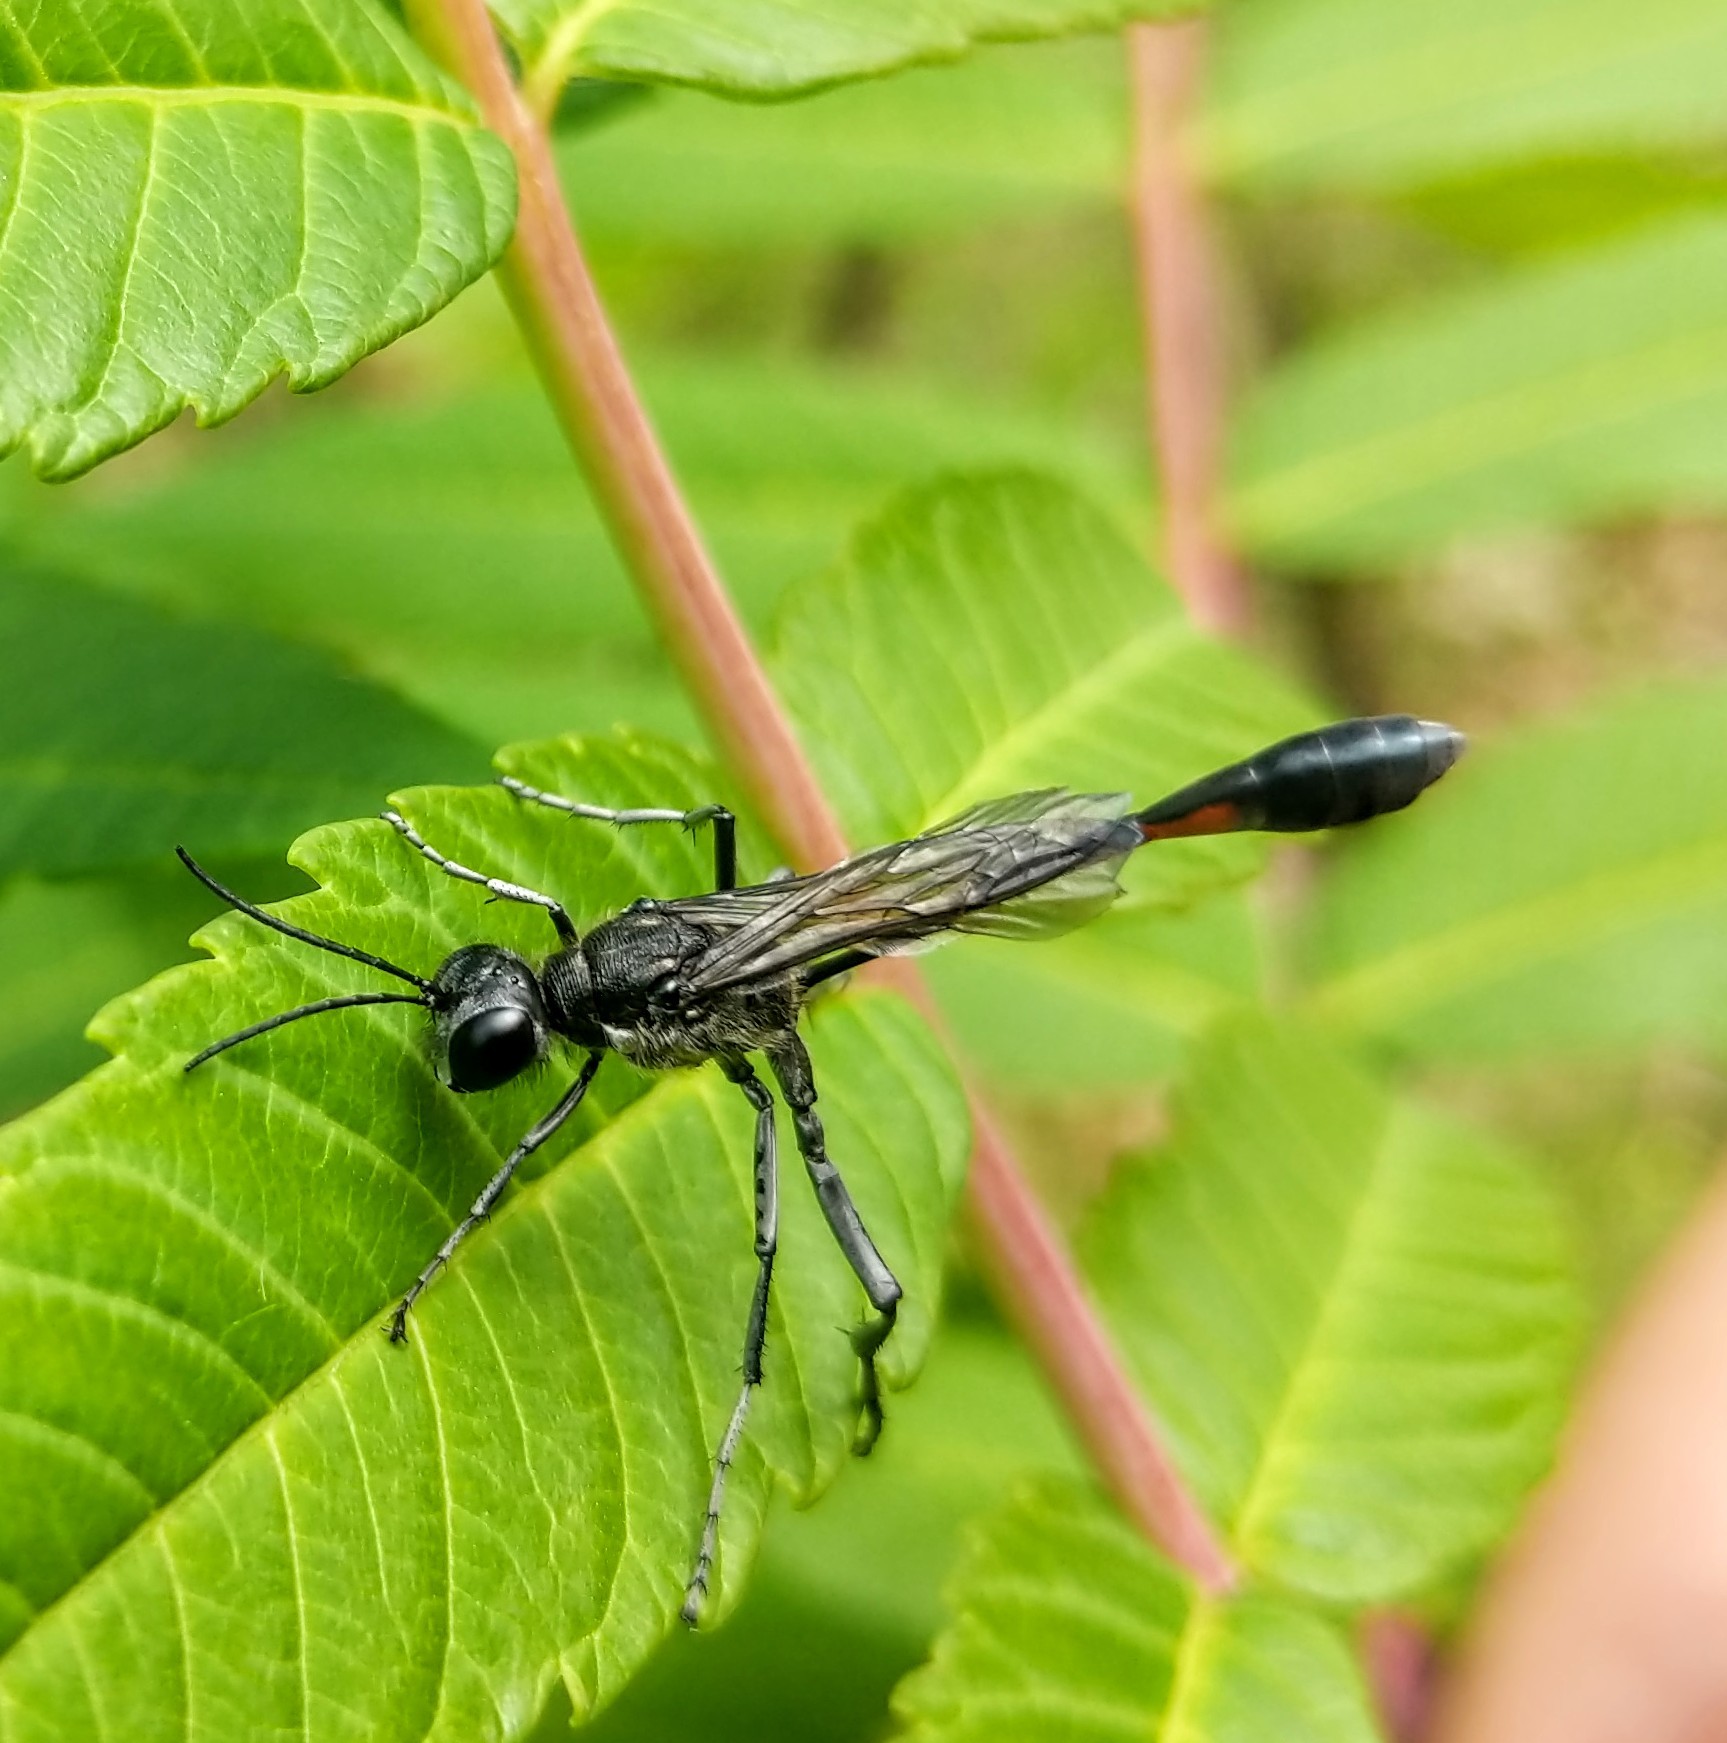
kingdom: Animalia
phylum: Arthropoda
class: Insecta
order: Hymenoptera
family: Sphecidae
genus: Ammophila
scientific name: Ammophila procera
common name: Common thread-waisted wasp
